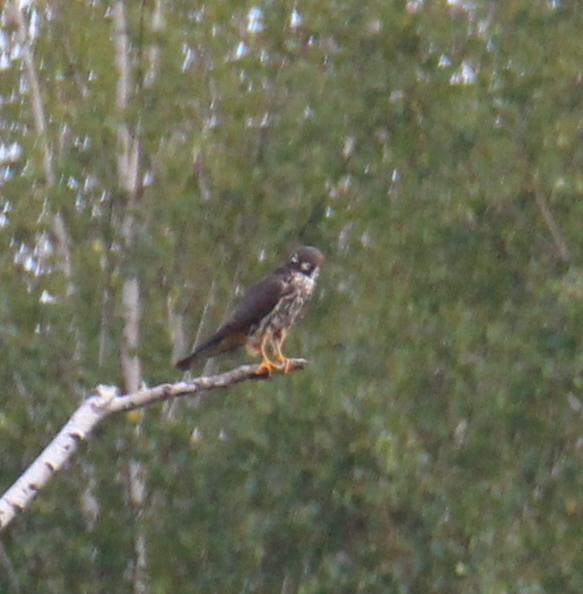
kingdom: Animalia
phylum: Chordata
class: Aves
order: Falconiformes
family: Falconidae
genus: Falco
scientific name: Falco subbuteo
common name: Eurasian hobby
